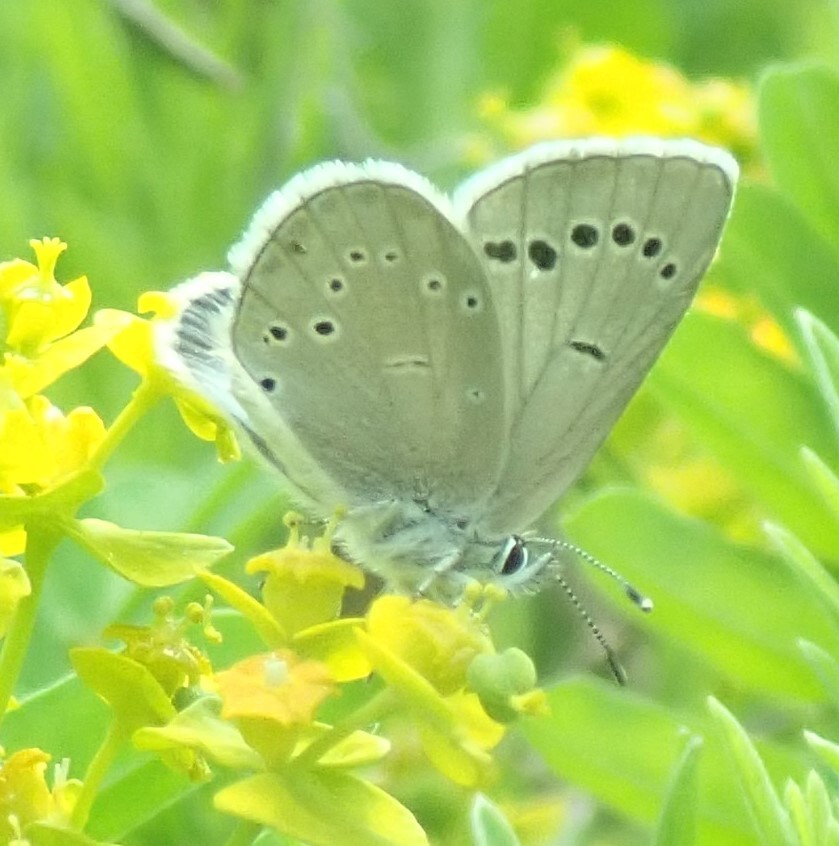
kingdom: Animalia
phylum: Arthropoda
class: Insecta
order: Lepidoptera
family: Lycaenidae
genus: Glaucopsyche
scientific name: Glaucopsyche lygdamus
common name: Silvery blue
